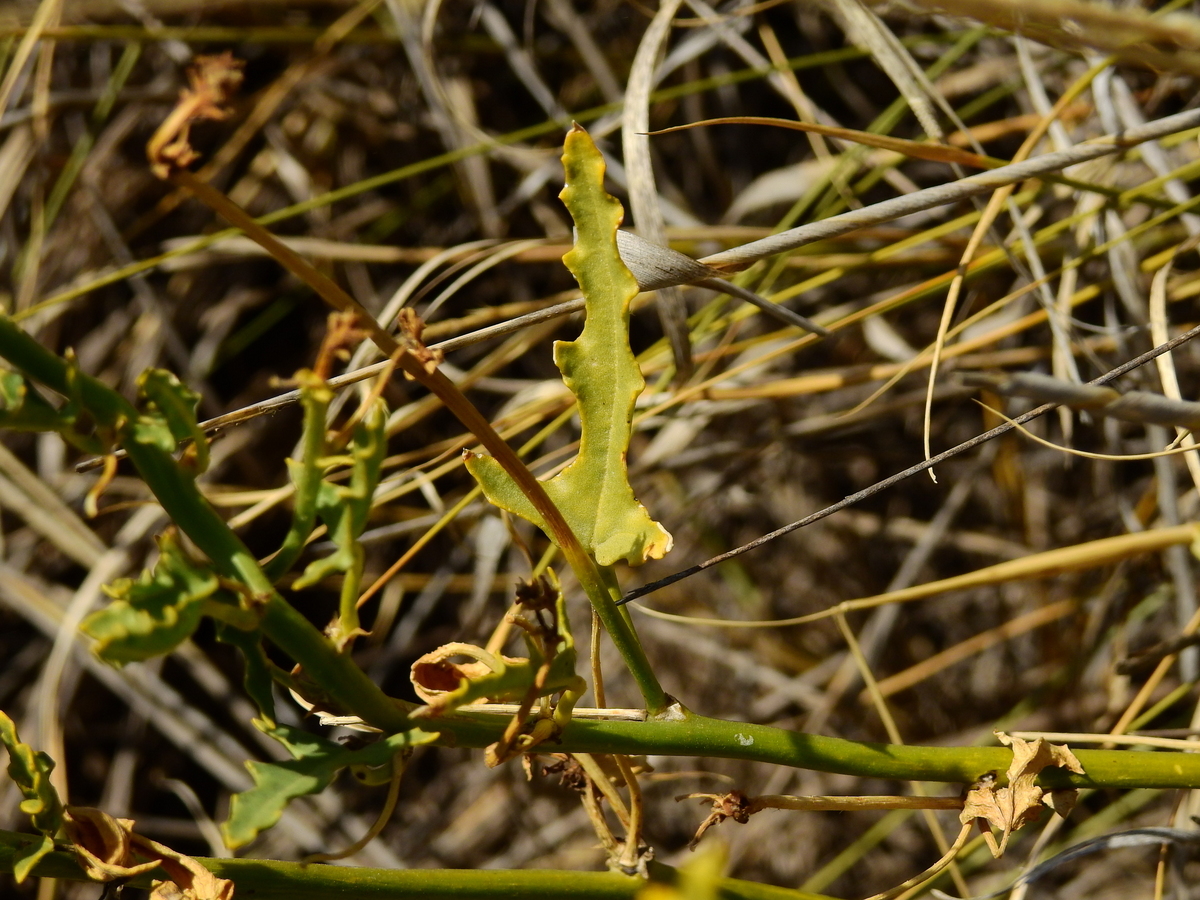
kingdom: Plantae
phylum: Tracheophyta
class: Magnoliopsida
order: Malvales
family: Malvaceae
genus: Lecanophora
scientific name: Lecanophora heterophylla
